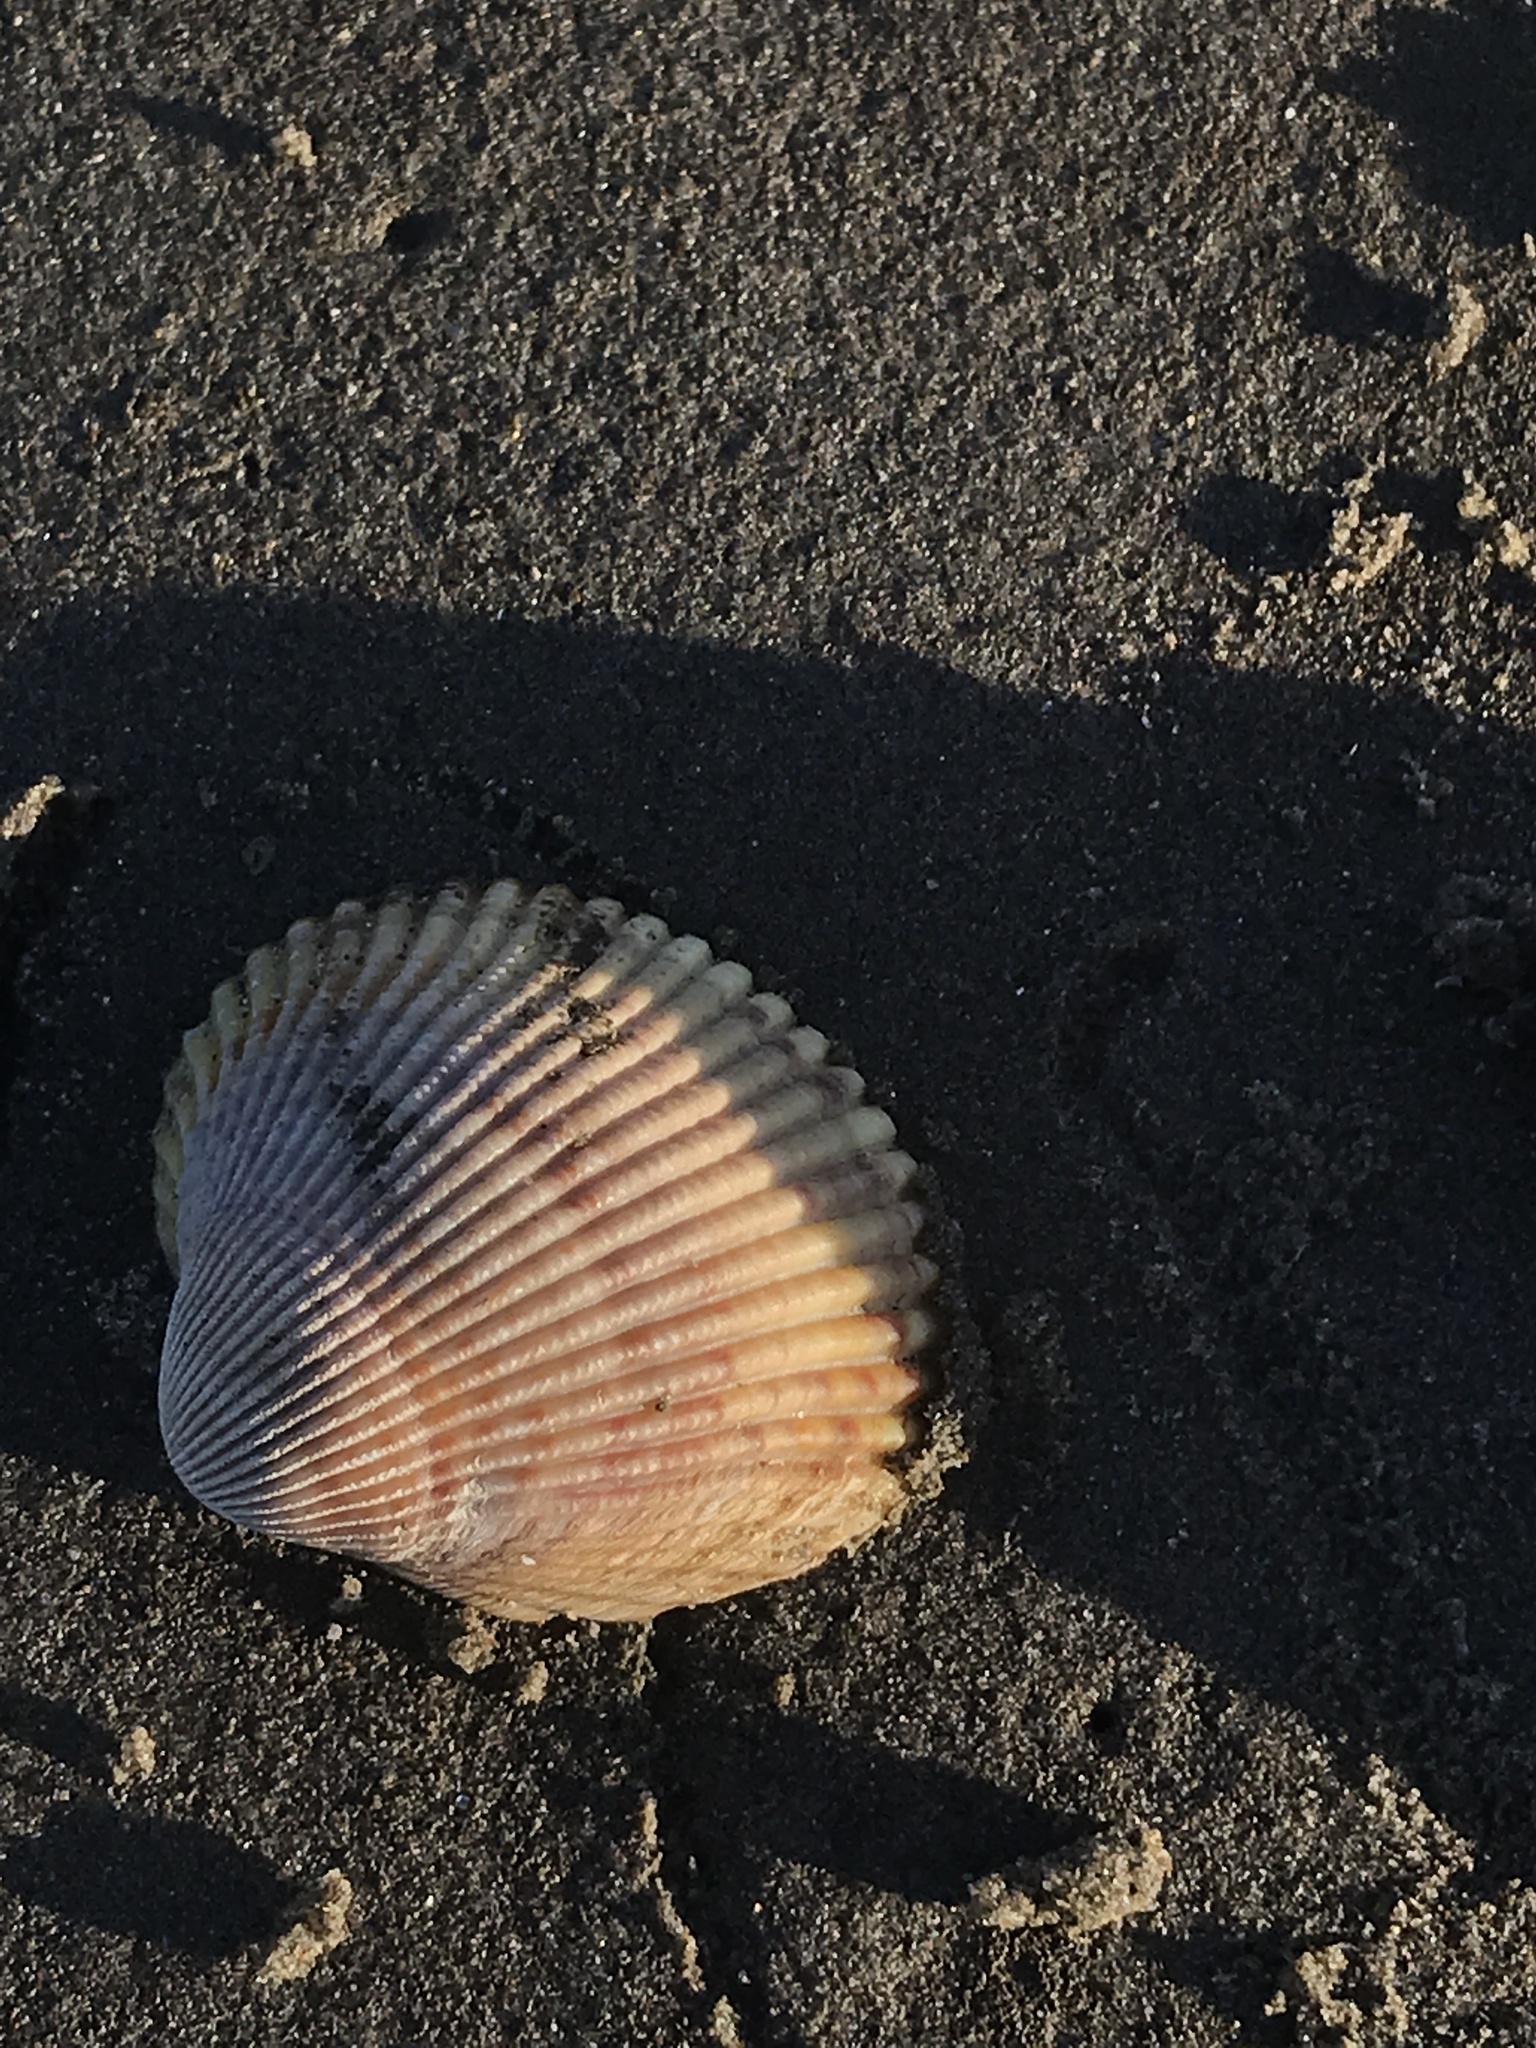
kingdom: Animalia
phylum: Mollusca
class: Bivalvia
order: Cardiida
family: Cardiidae
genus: Clinocardium
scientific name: Clinocardium nuttallii
